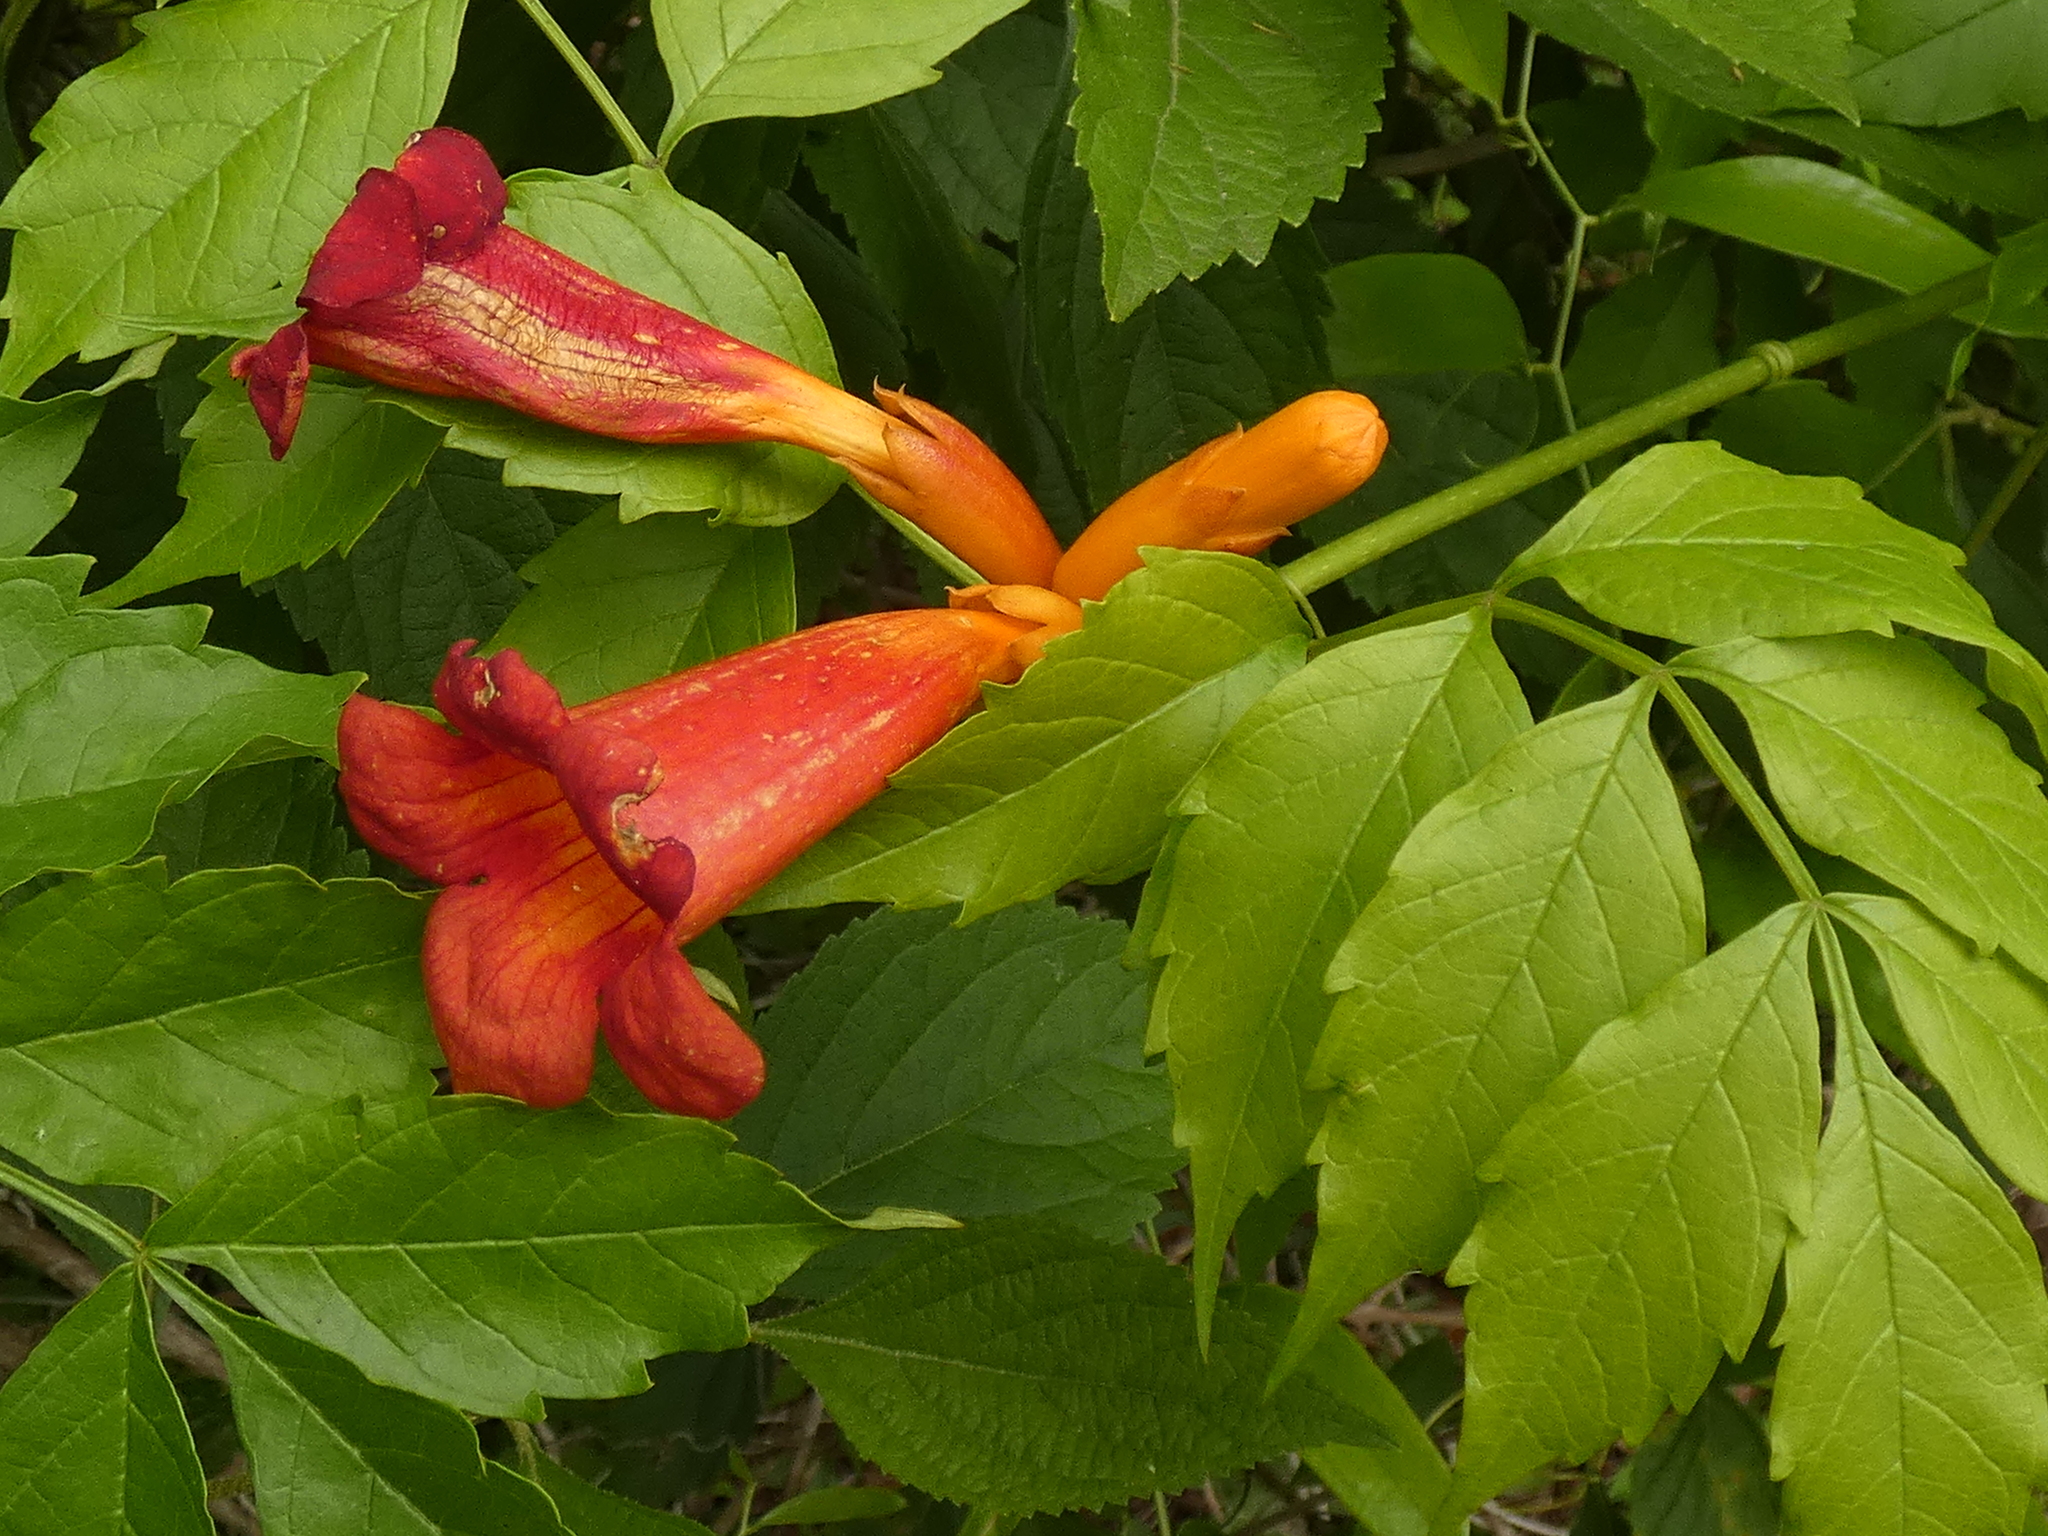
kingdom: Plantae
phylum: Tracheophyta
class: Magnoliopsida
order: Lamiales
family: Bignoniaceae
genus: Campsis
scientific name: Campsis radicans
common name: Trumpet-creeper
